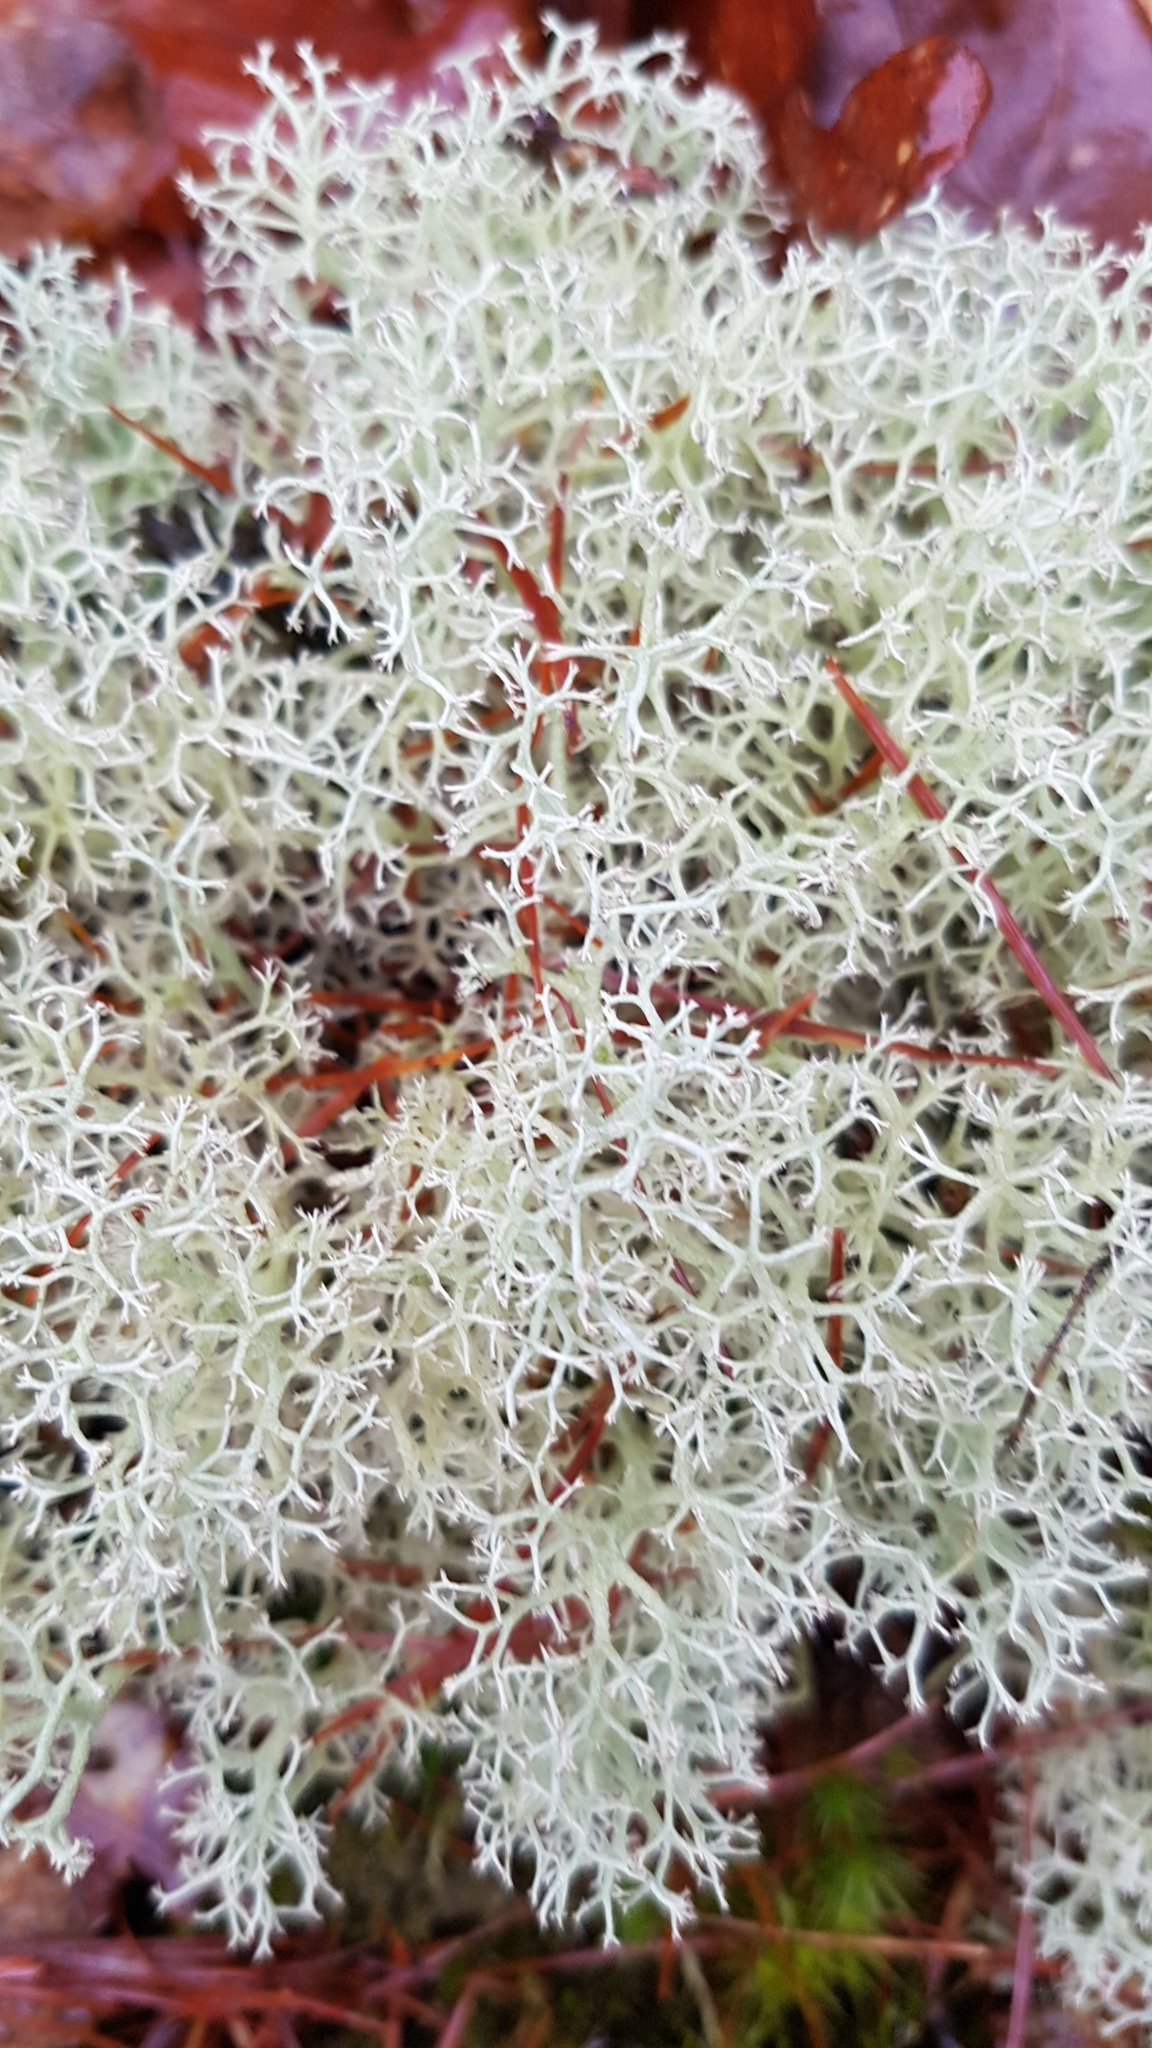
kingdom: Fungi
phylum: Ascomycota
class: Lecanoromycetes
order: Lecanorales
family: Cladoniaceae
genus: Cladonia
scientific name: Cladonia portentosa
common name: Reindeer lichen
